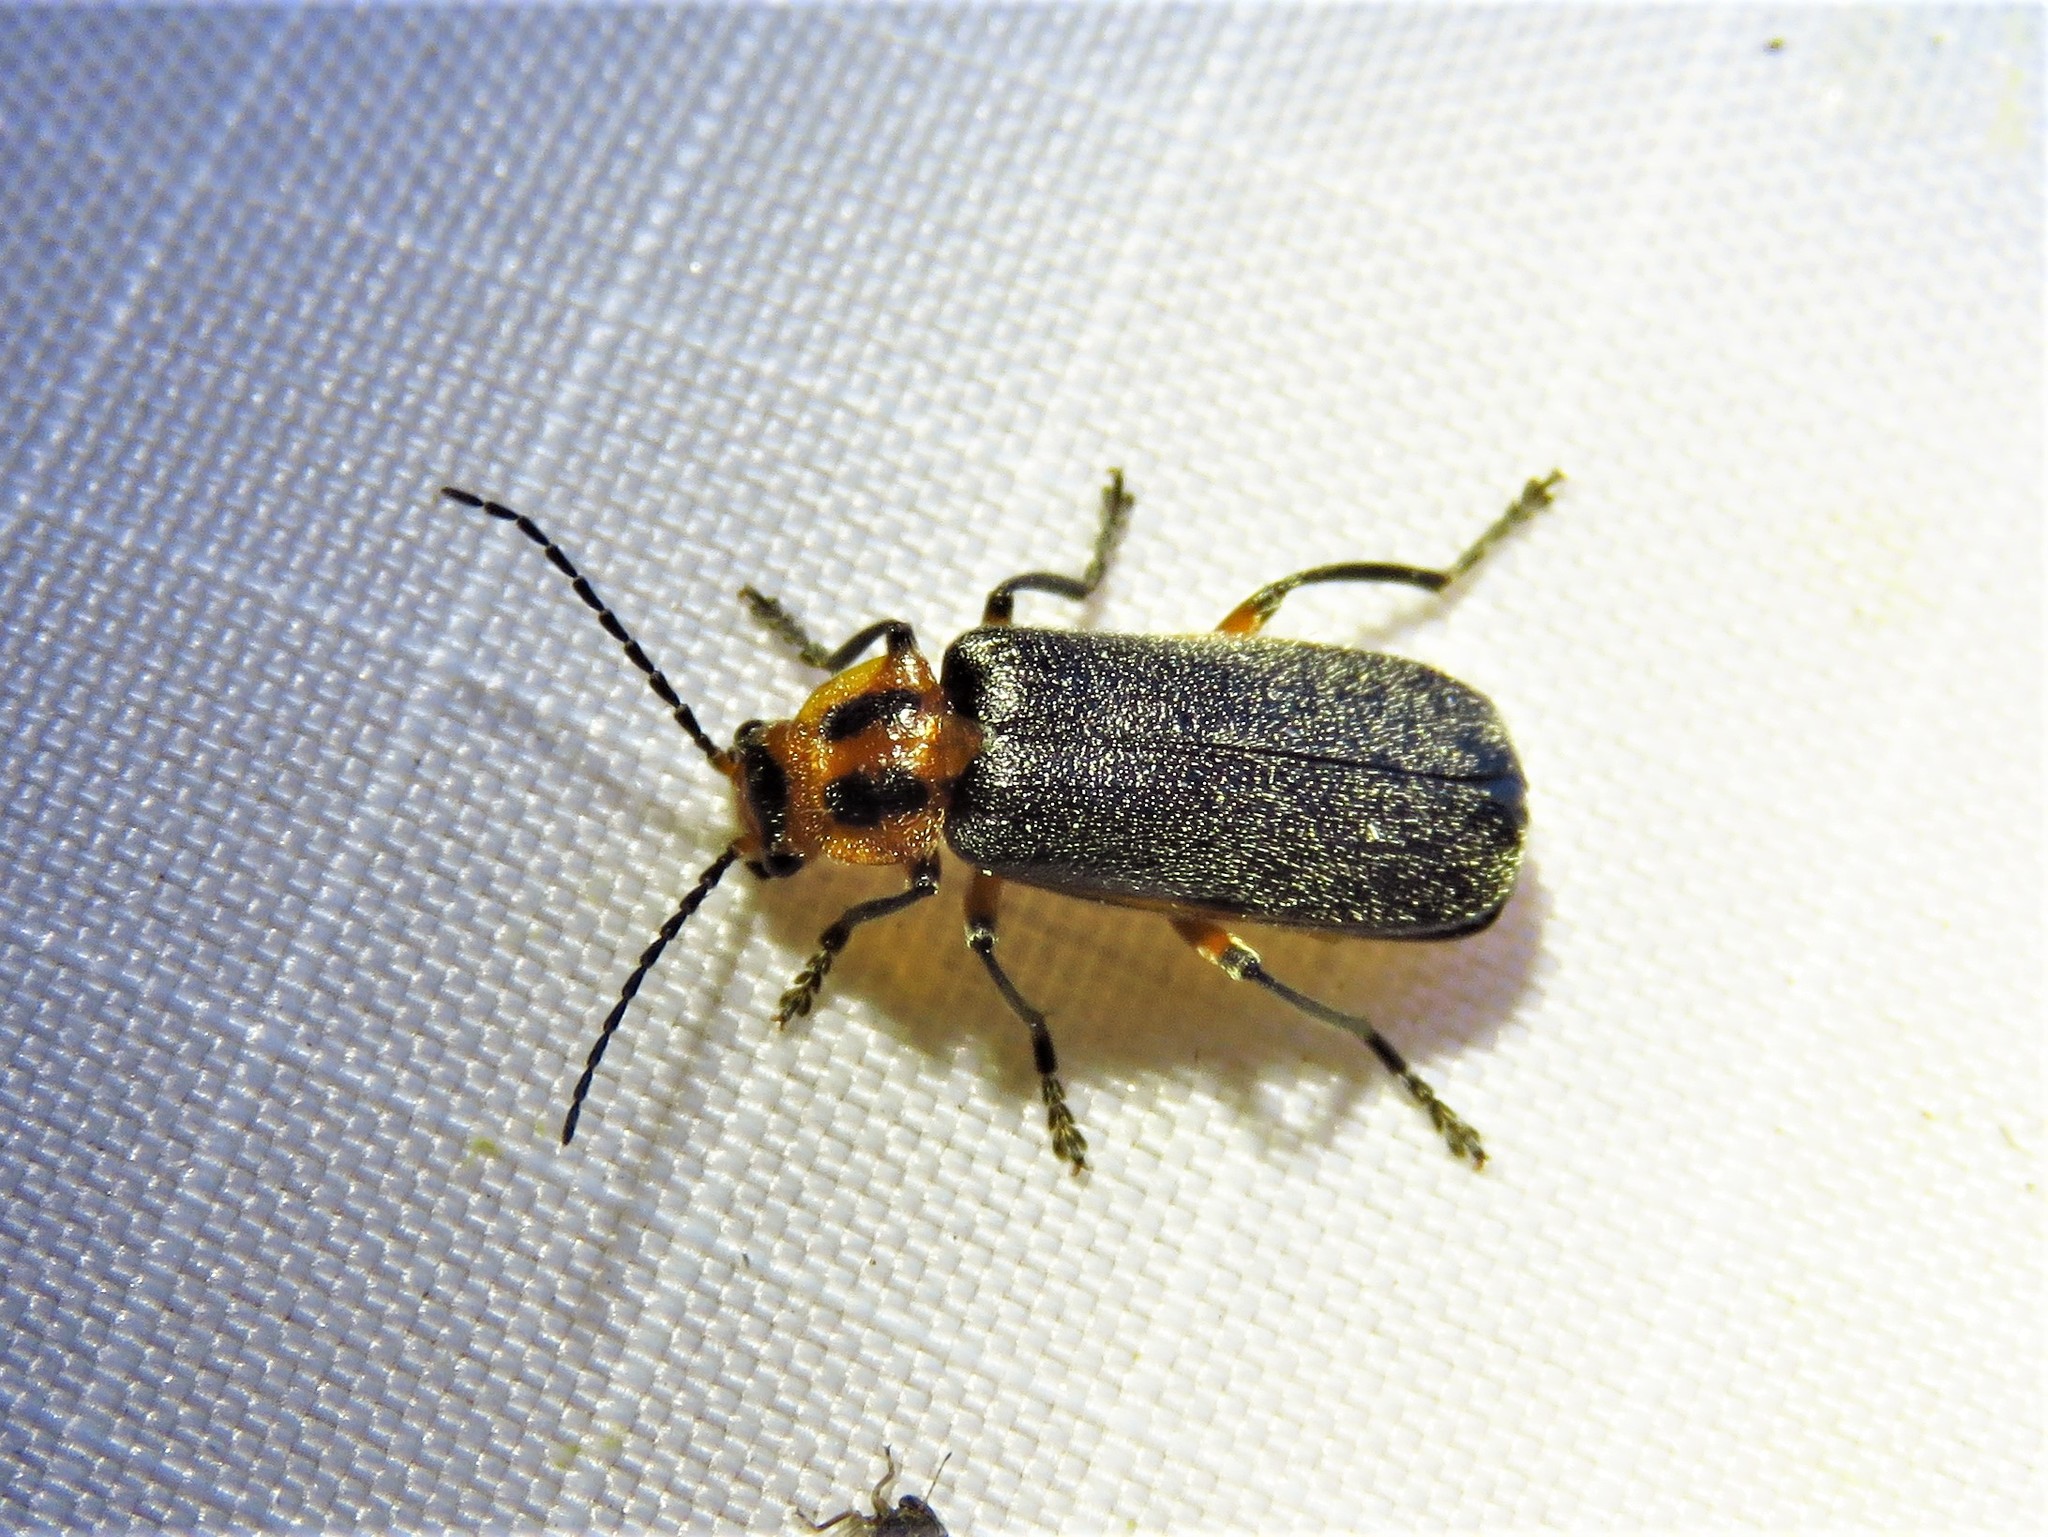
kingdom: Animalia
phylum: Arthropoda
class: Insecta
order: Coleoptera
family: Cantharidae
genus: Atalantycha
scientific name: Atalantycha bilineata
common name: Two-lined leatherwing
